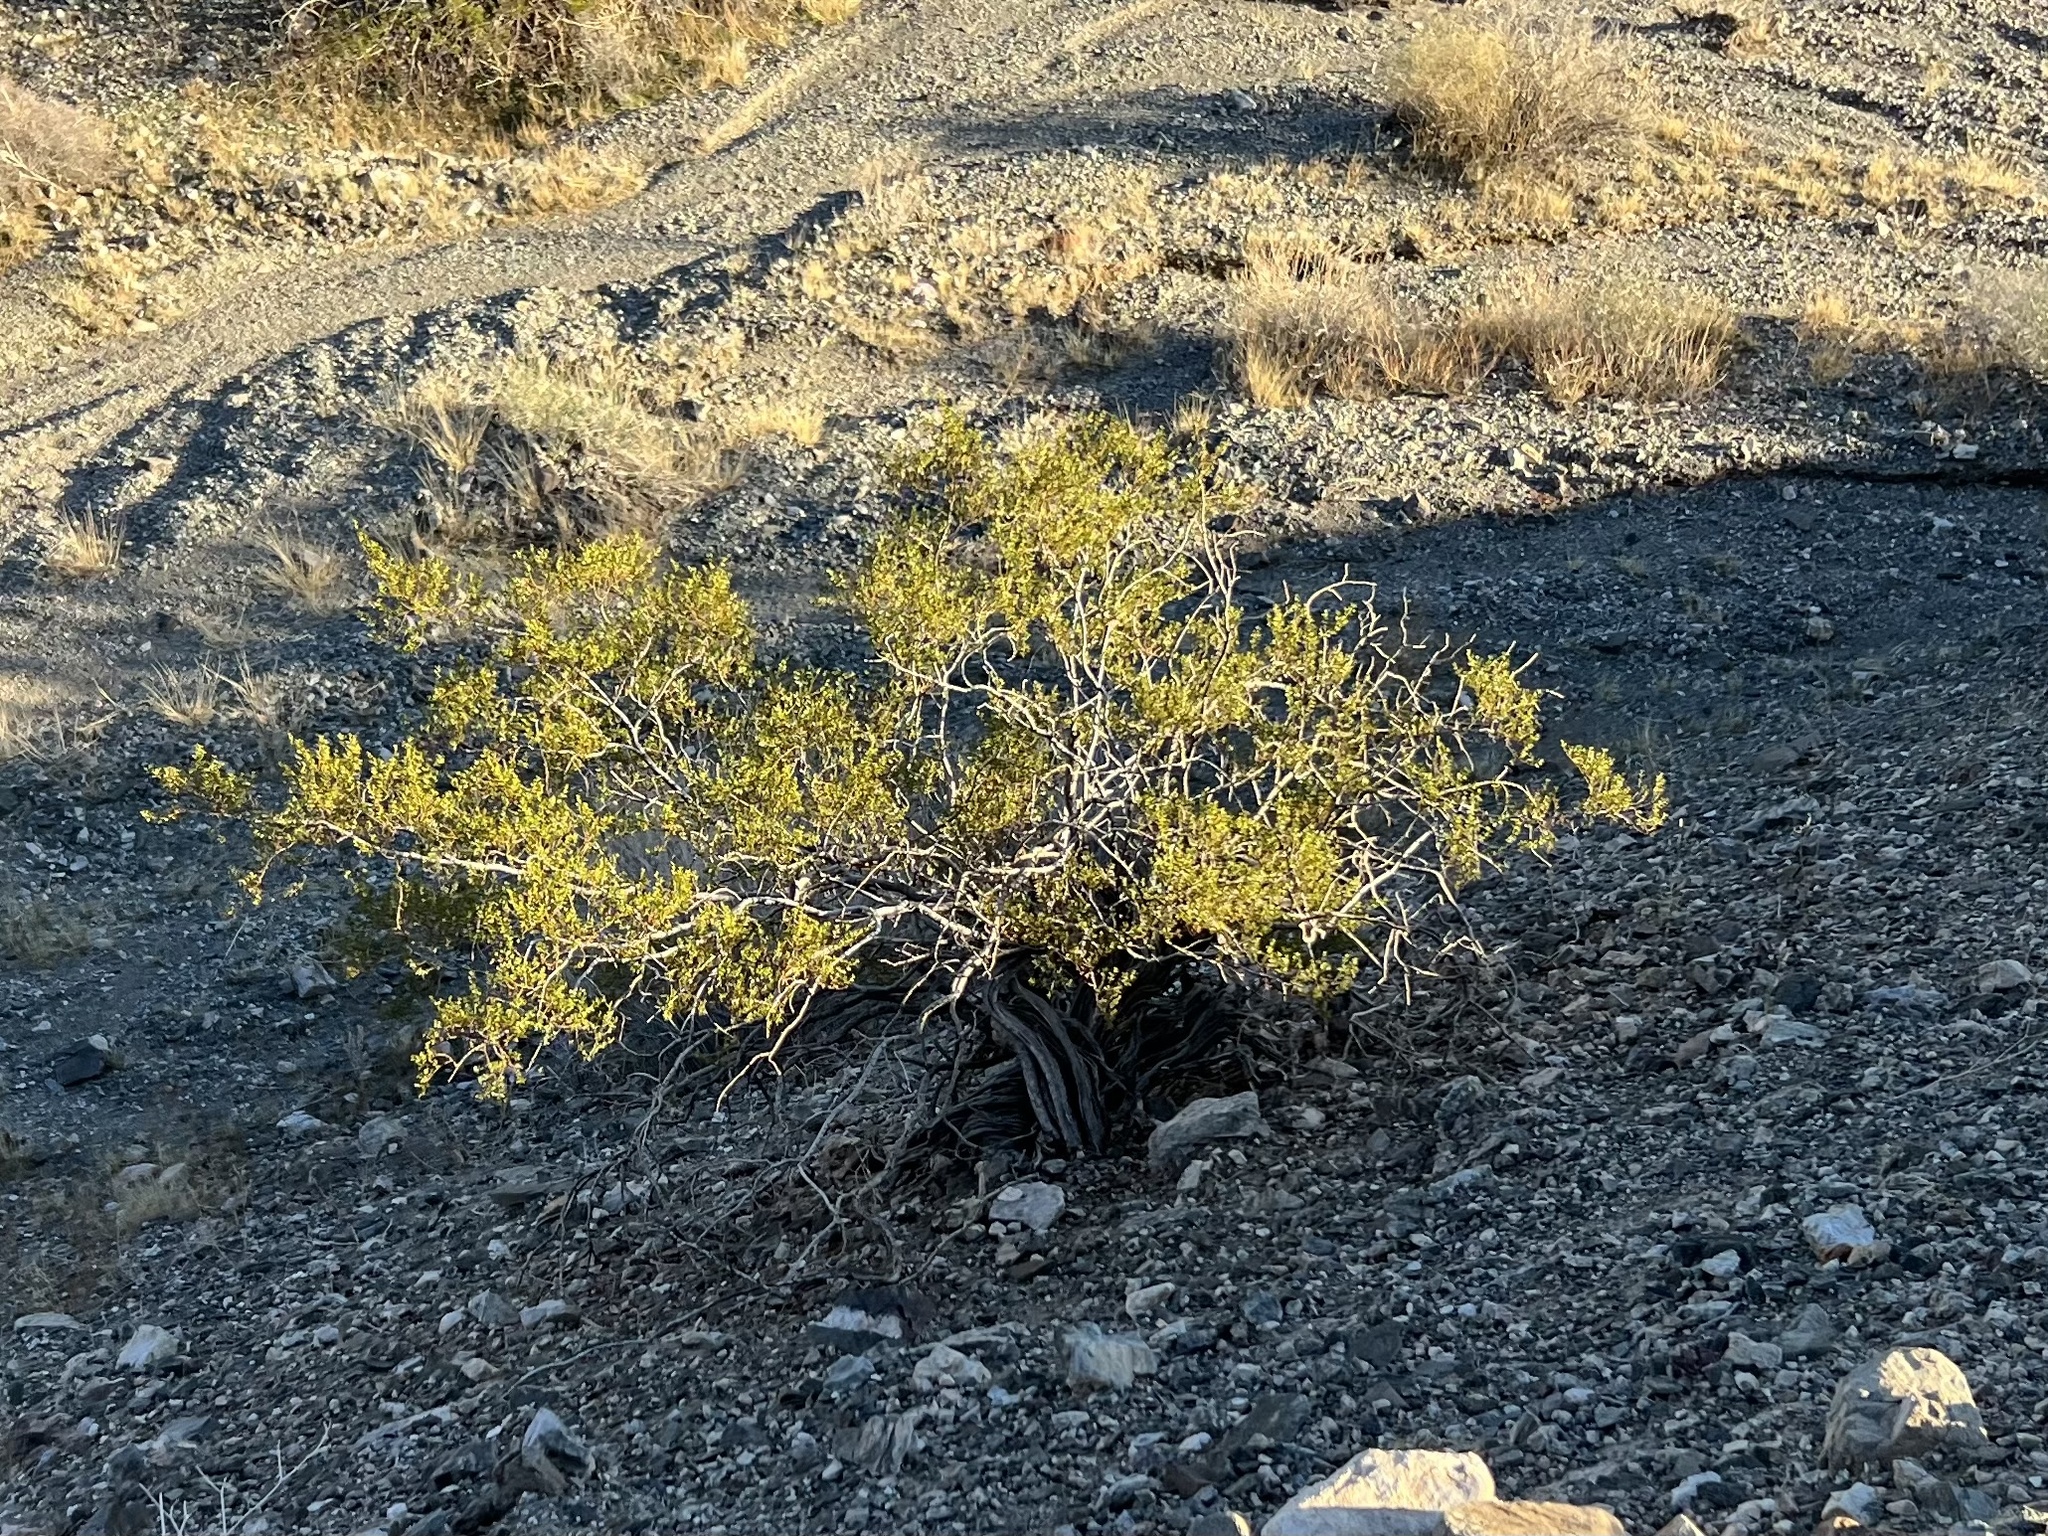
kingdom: Plantae
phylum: Tracheophyta
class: Magnoliopsida
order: Zygophyllales
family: Zygophyllaceae
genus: Larrea
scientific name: Larrea tridentata
